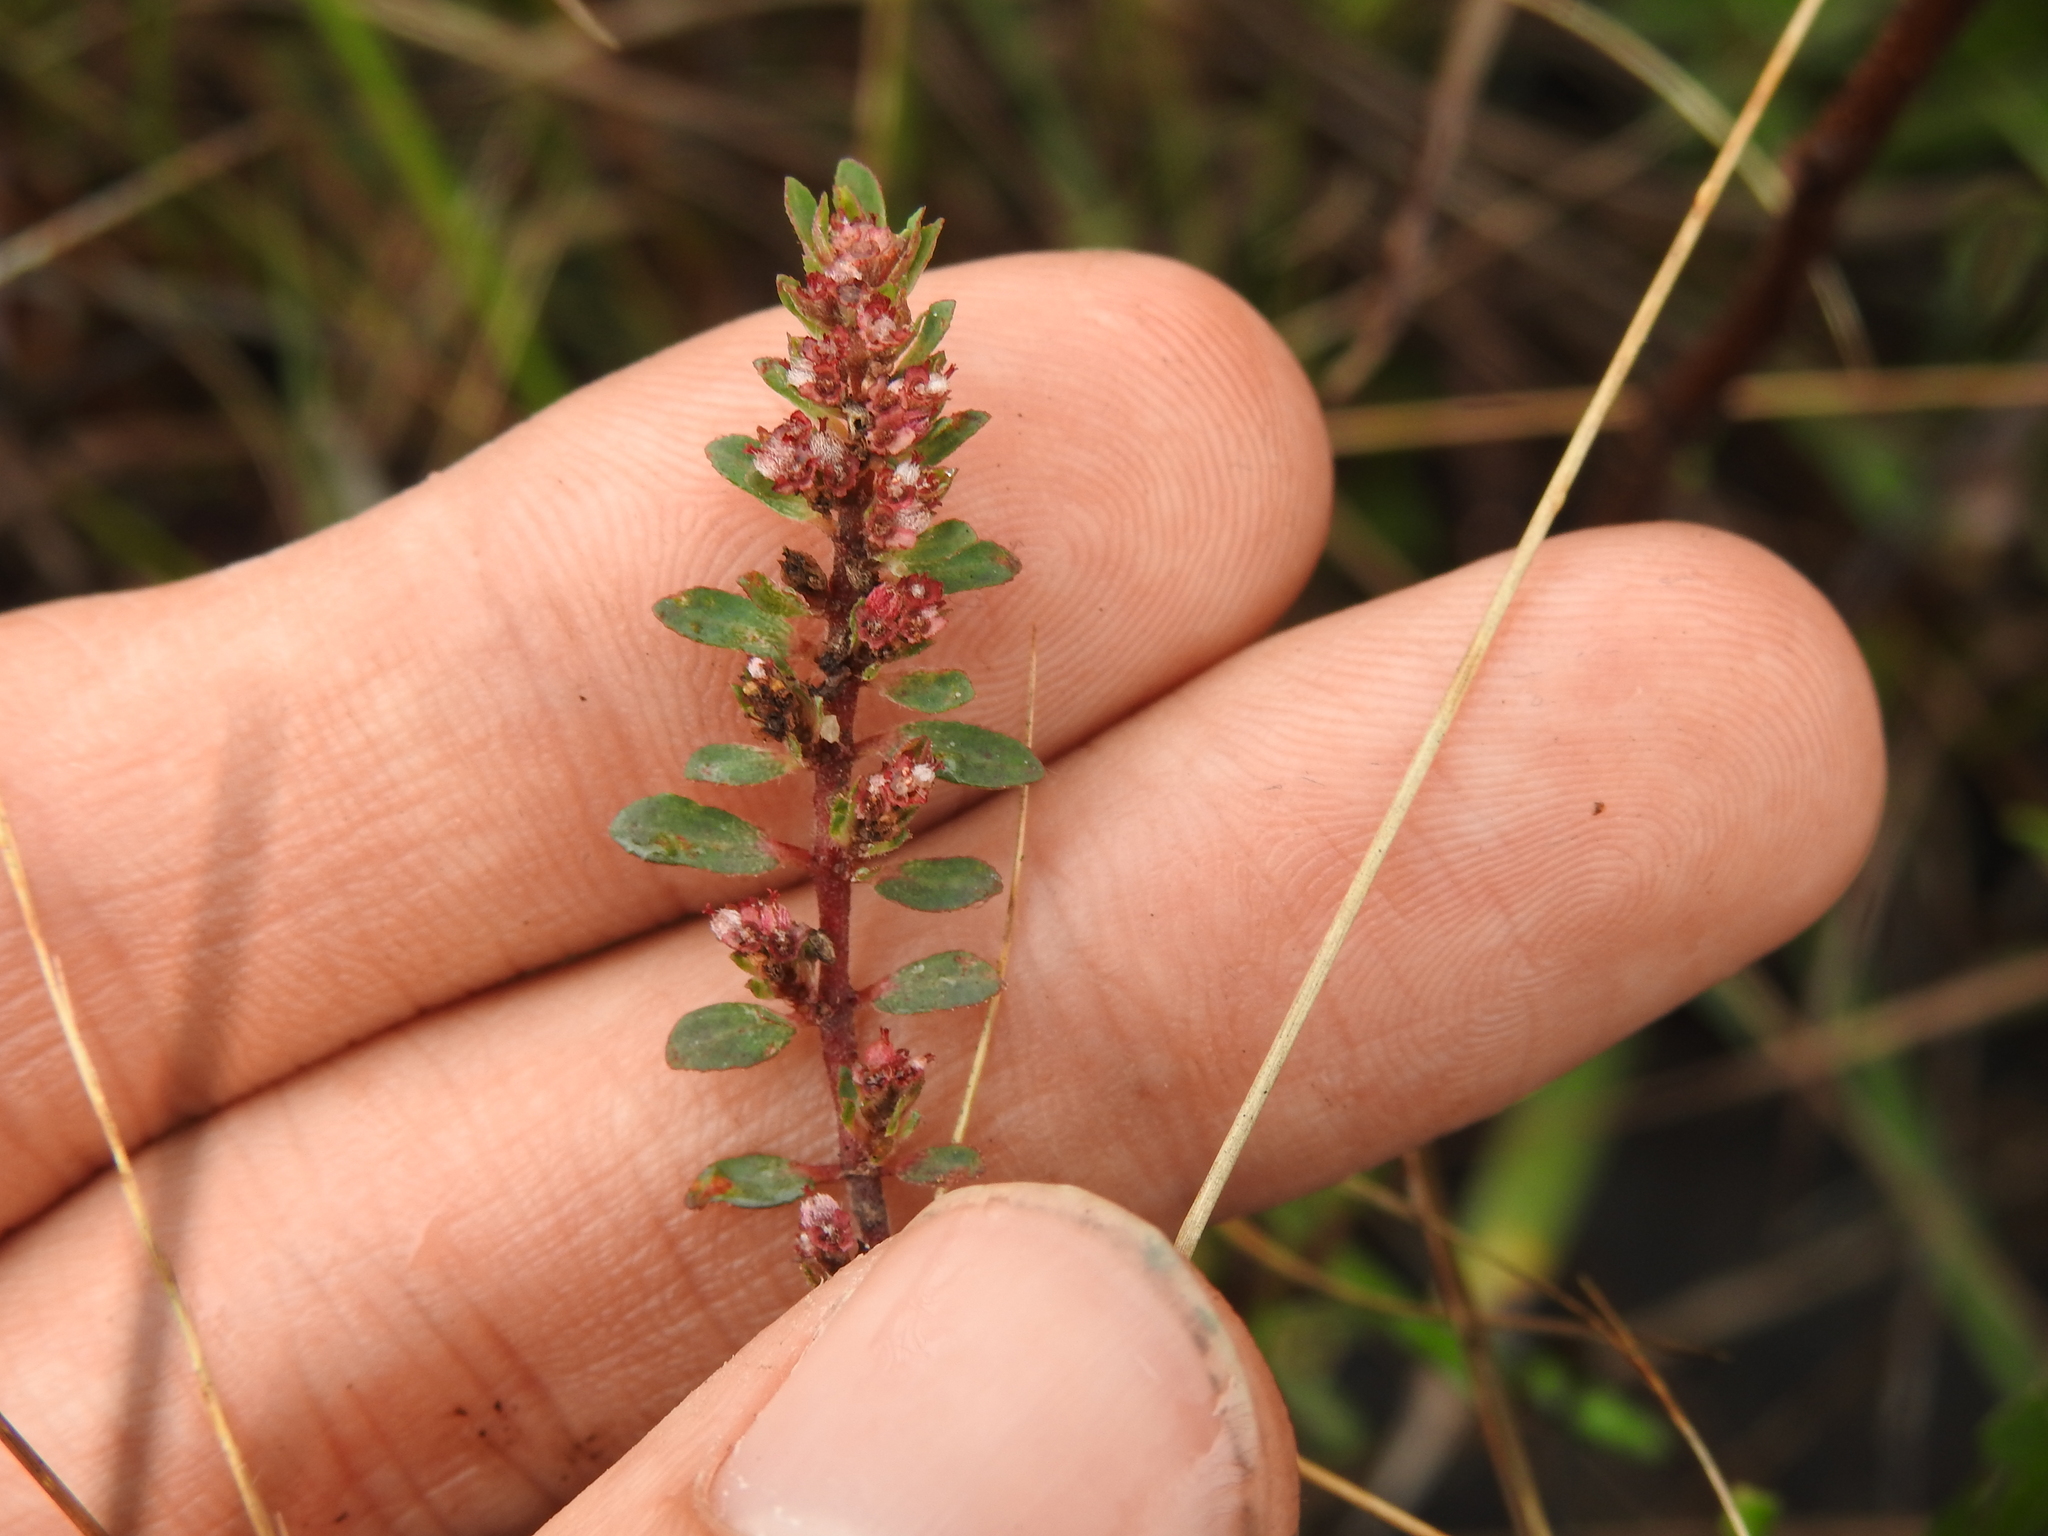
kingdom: Plantae
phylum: Tracheophyta
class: Magnoliopsida
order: Malpighiales
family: Euphorbiaceae
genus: Euphorbia
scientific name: Euphorbia conferta
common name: Everglade key sandmat
